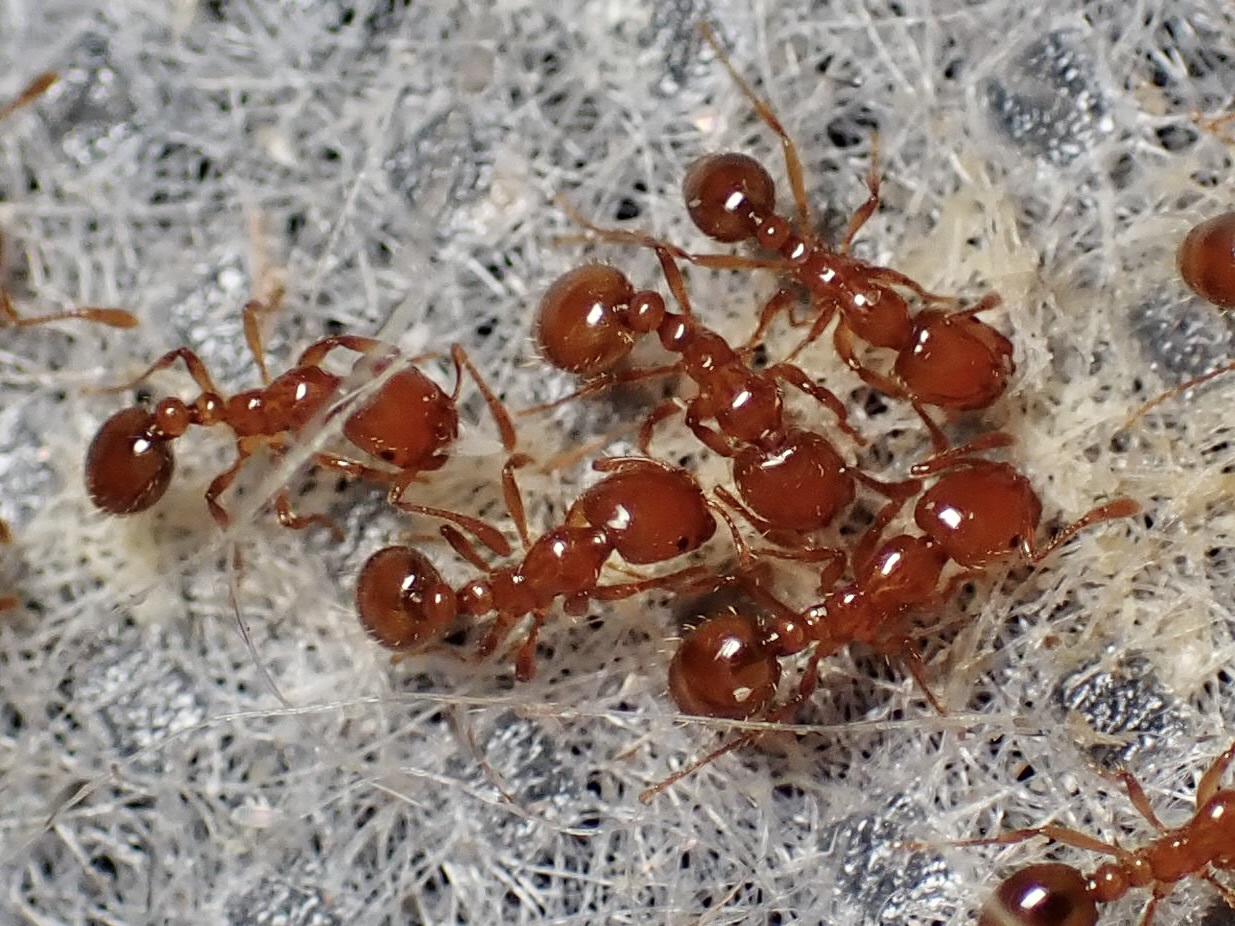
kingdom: Animalia
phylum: Arthropoda
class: Insecta
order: Hymenoptera
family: Formicidae
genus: Solenopsis
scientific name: Solenopsis amblychila
